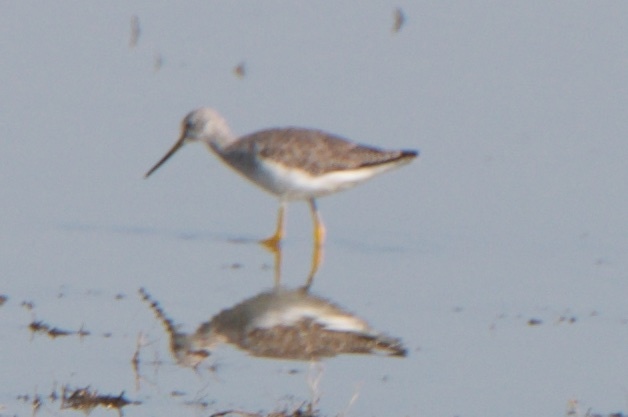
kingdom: Animalia
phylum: Chordata
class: Aves
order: Charadriiformes
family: Scolopacidae
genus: Tringa
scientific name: Tringa melanoleuca
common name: Greater yellowlegs
